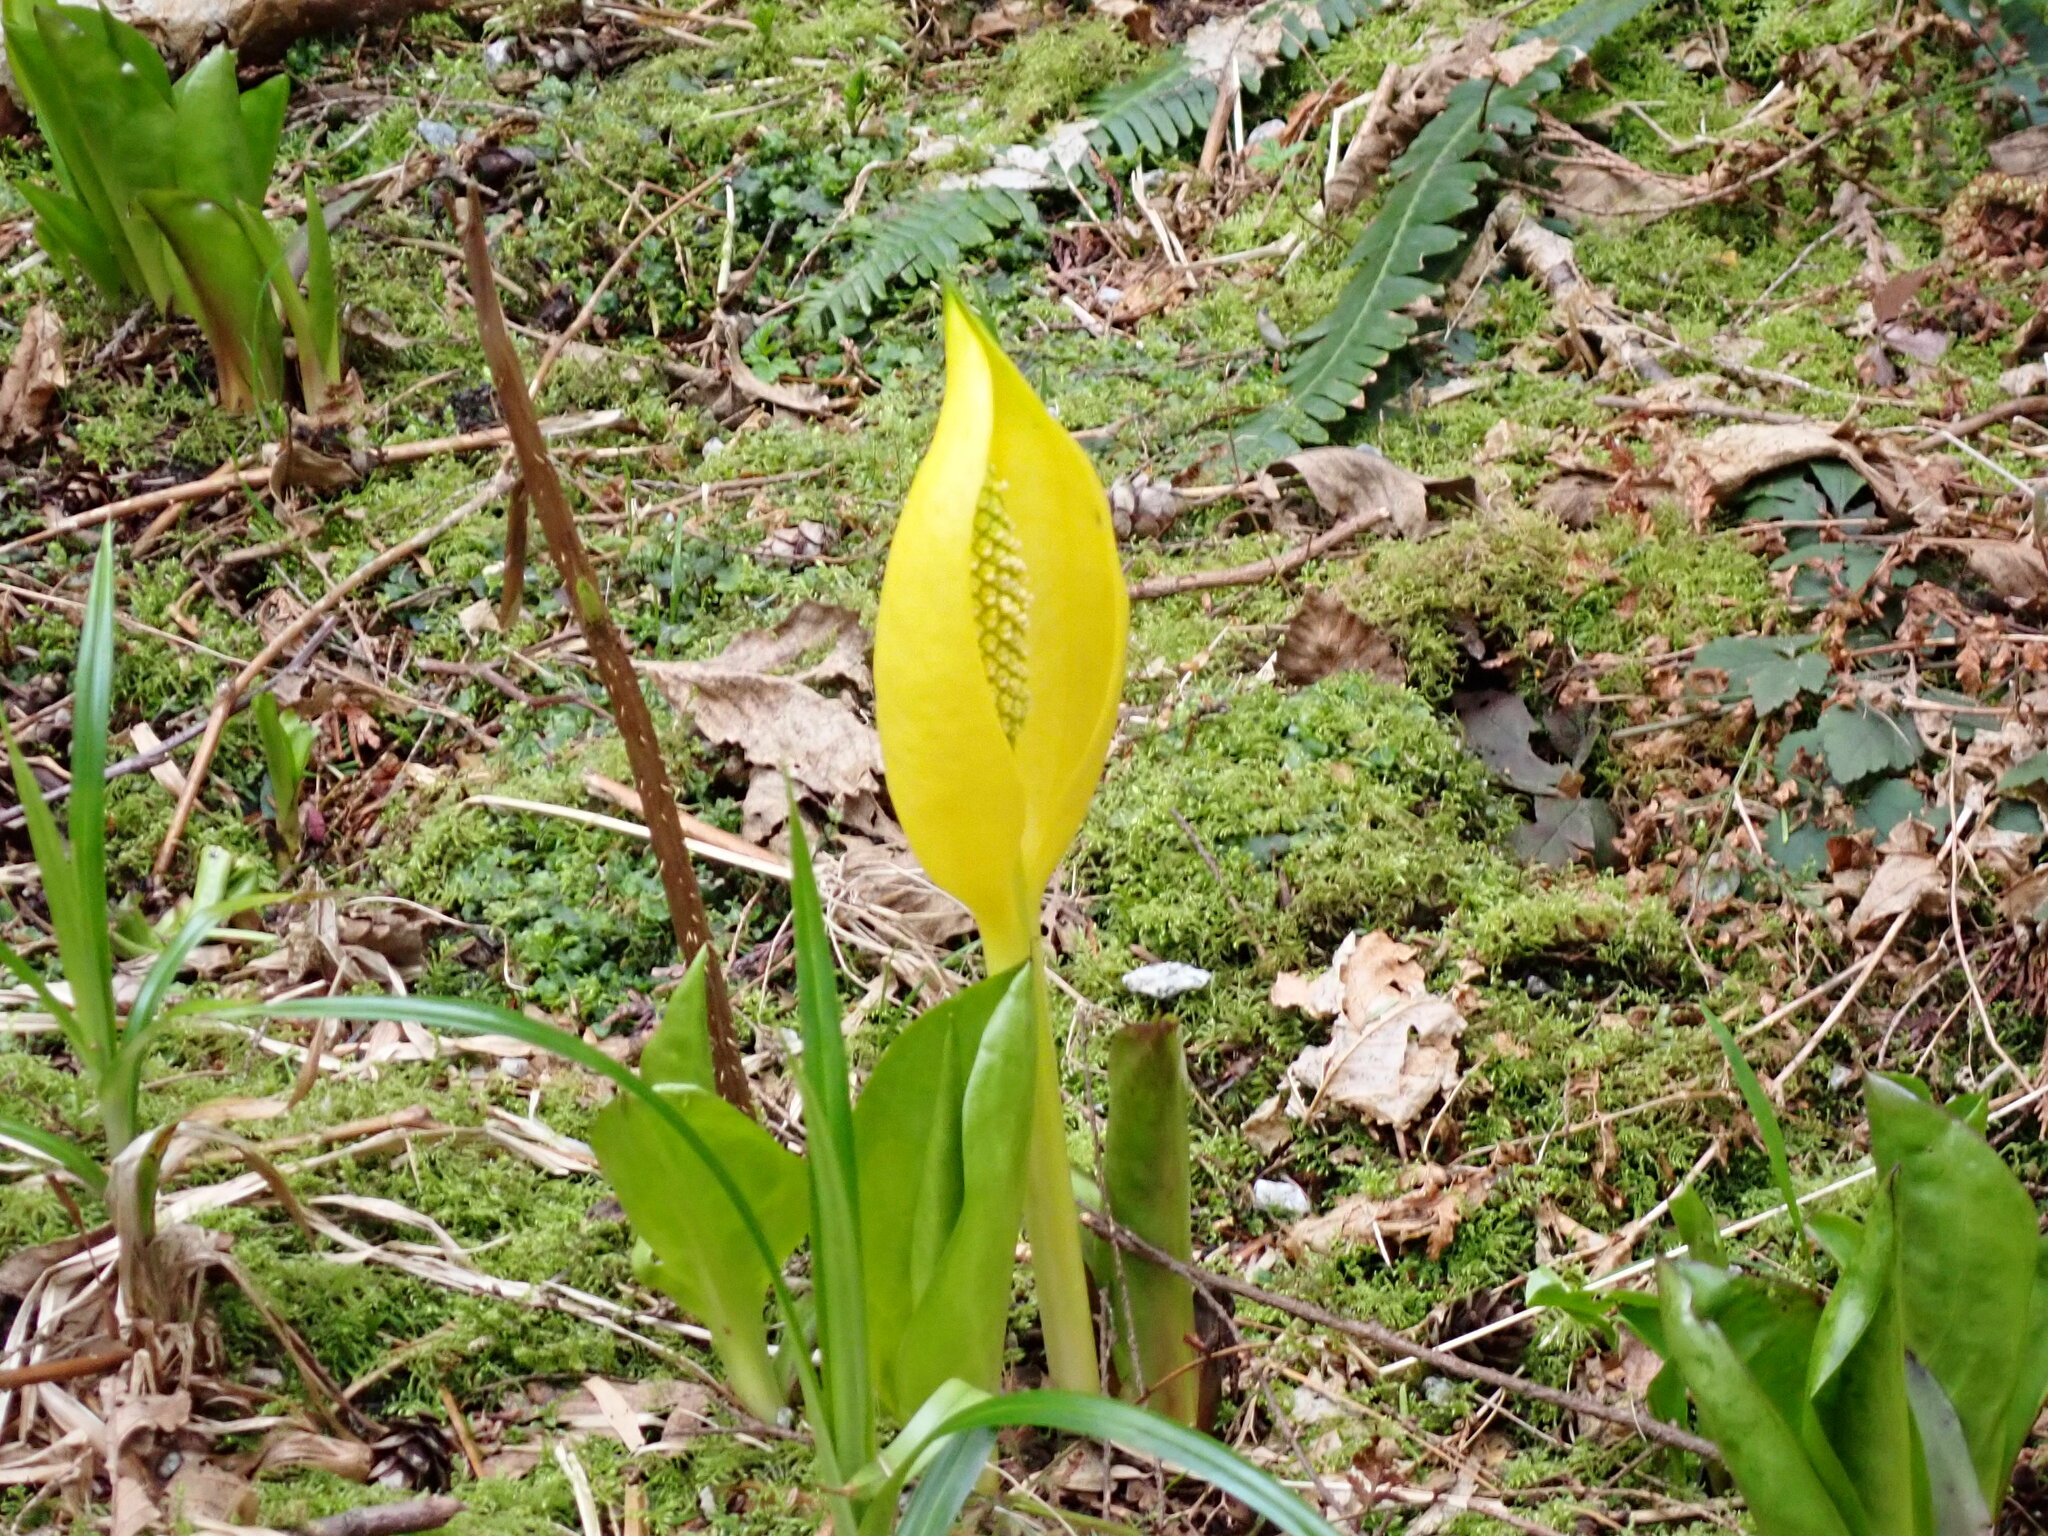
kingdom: Plantae
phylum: Tracheophyta
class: Liliopsida
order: Alismatales
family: Araceae
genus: Lysichiton
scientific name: Lysichiton americanus
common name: American skunk cabbage
